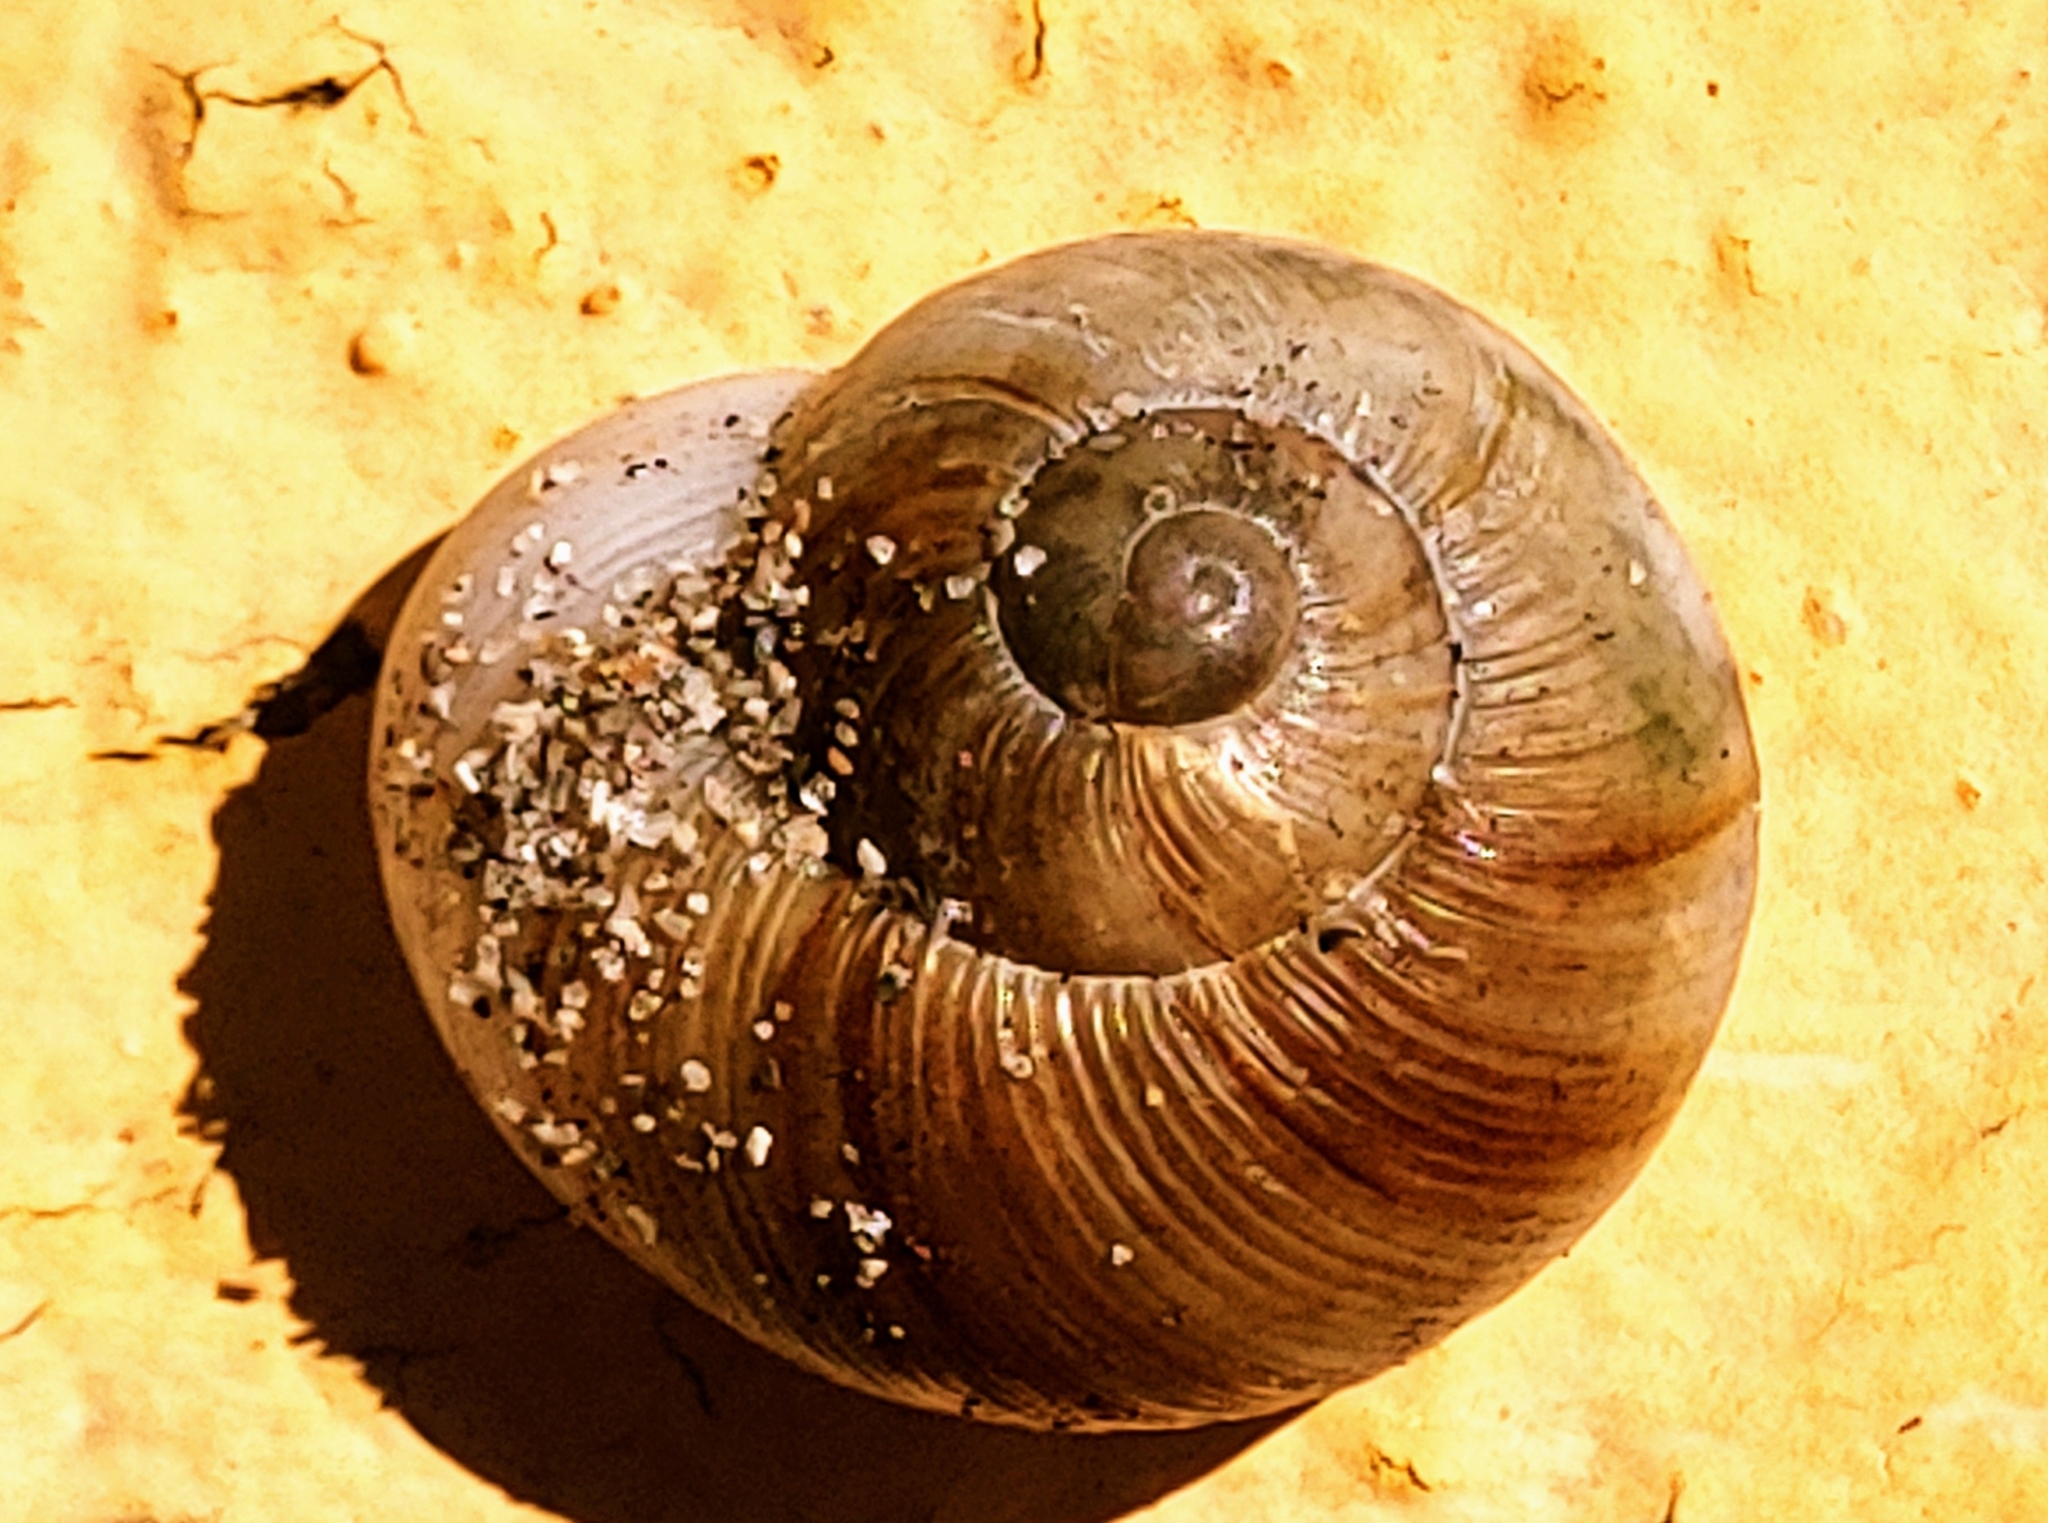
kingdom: Animalia
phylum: Mollusca
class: Gastropoda
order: Stylommatophora
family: Zachrysiidae
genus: Zachrysia
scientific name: Zachrysia provisoria
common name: Garden zachrysia
